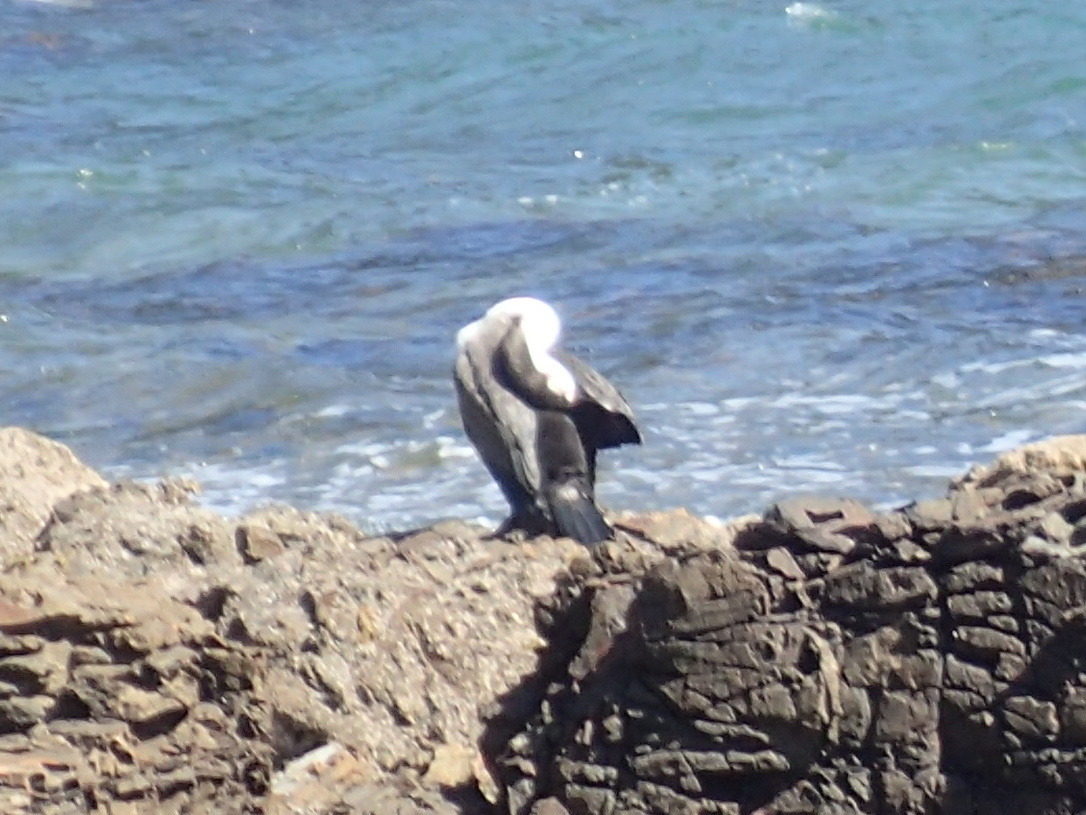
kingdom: Animalia
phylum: Chordata
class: Aves
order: Suliformes
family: Phalacrocoracidae
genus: Phalacrocorax
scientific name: Phalacrocorax varius
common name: Pied cormorant
